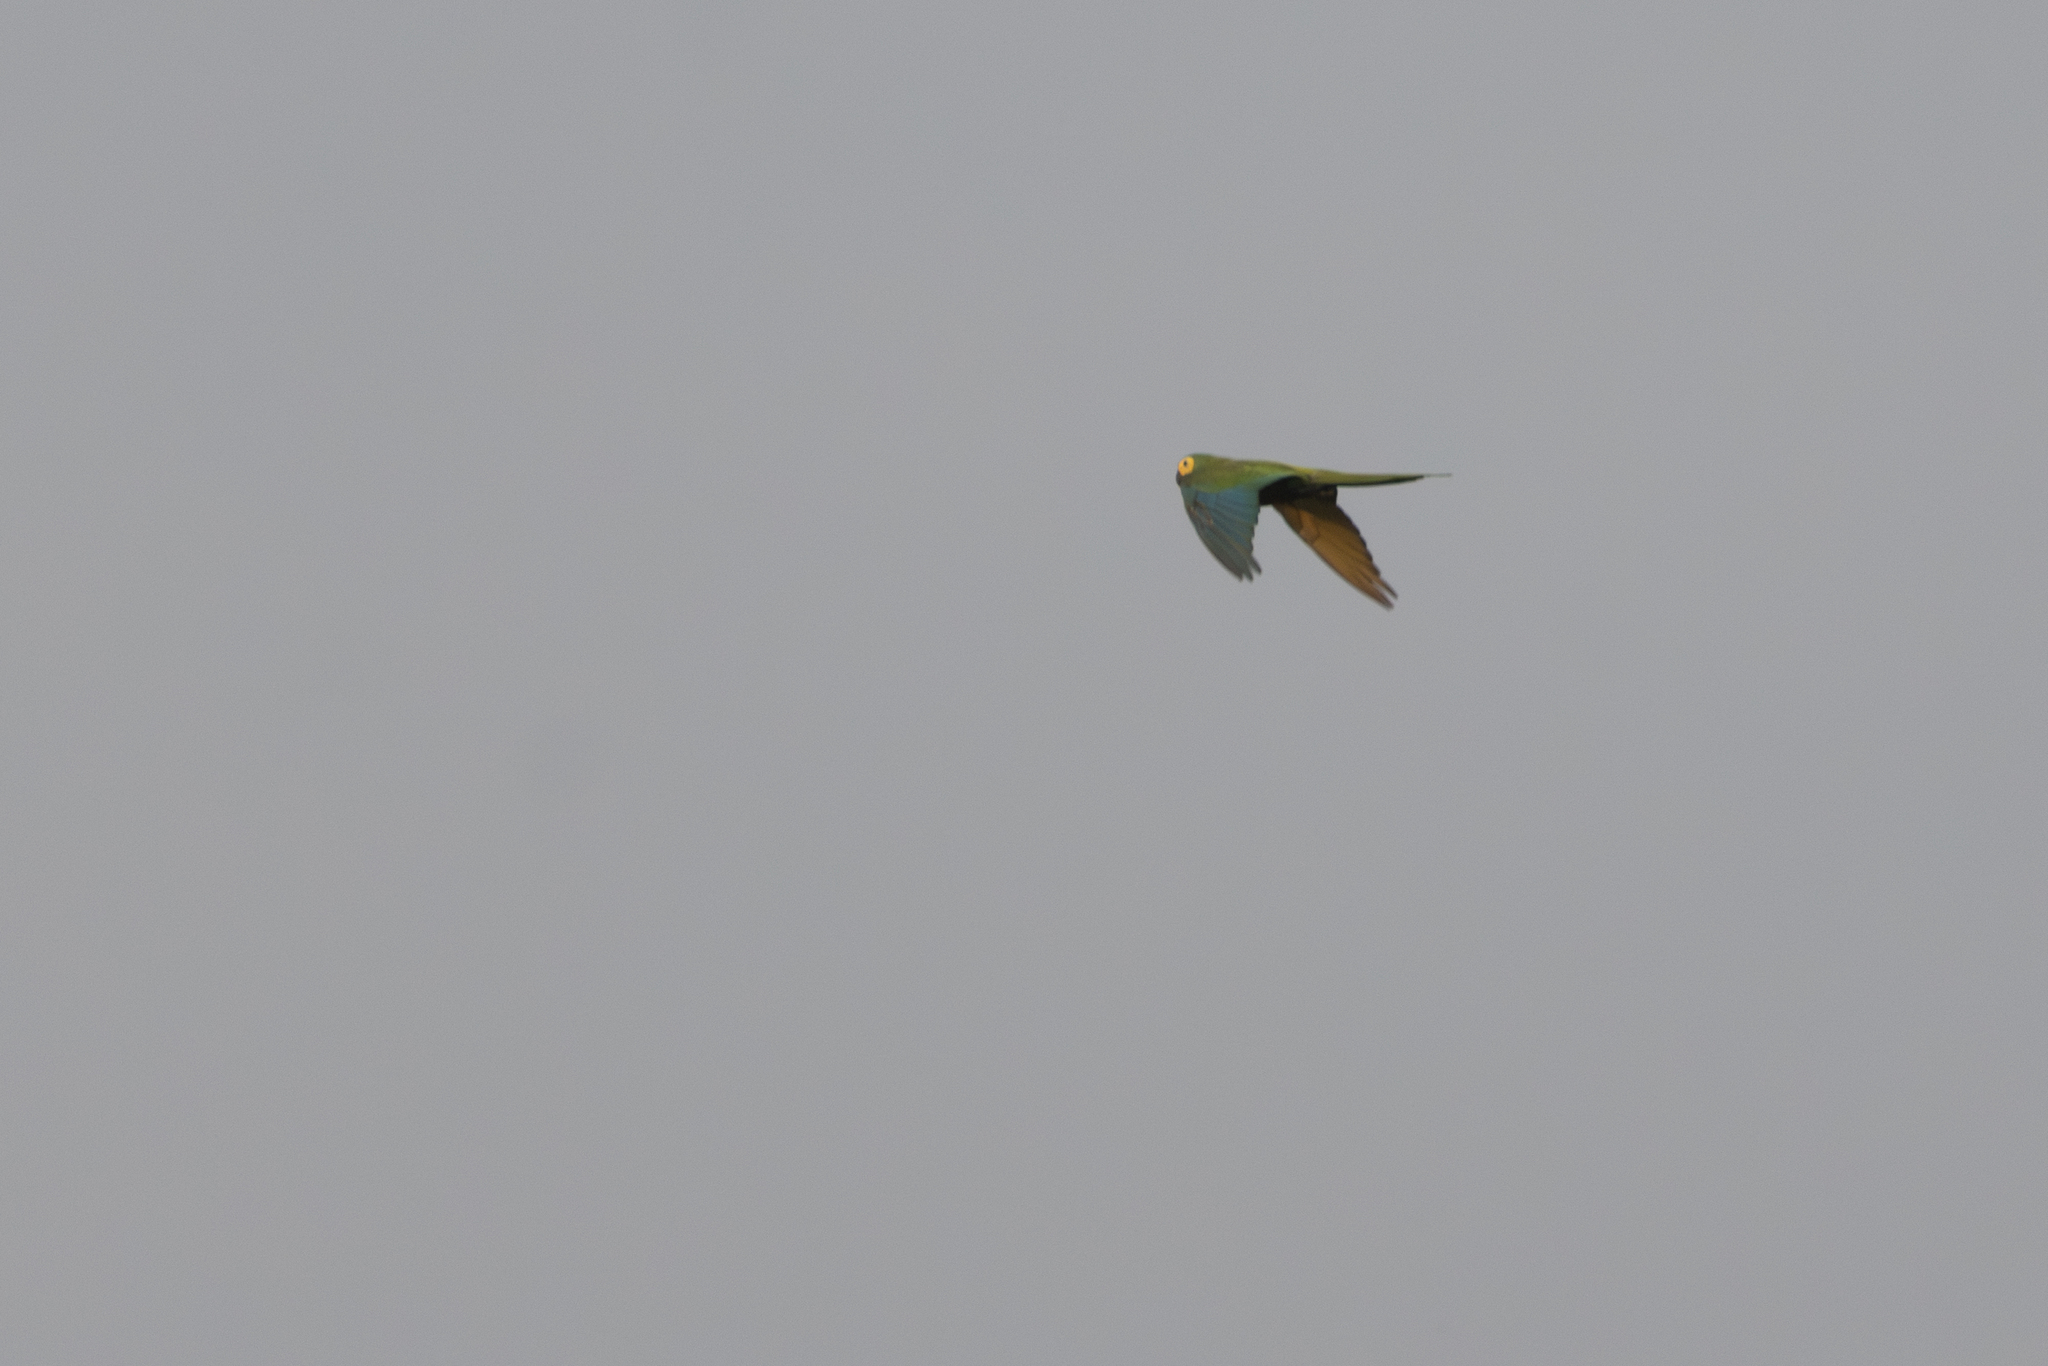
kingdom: Animalia
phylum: Chordata
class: Aves
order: Psittaciformes
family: Psittacidae
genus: Orthopsittaca
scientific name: Orthopsittaca manilata
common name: Red-bellied macaw
